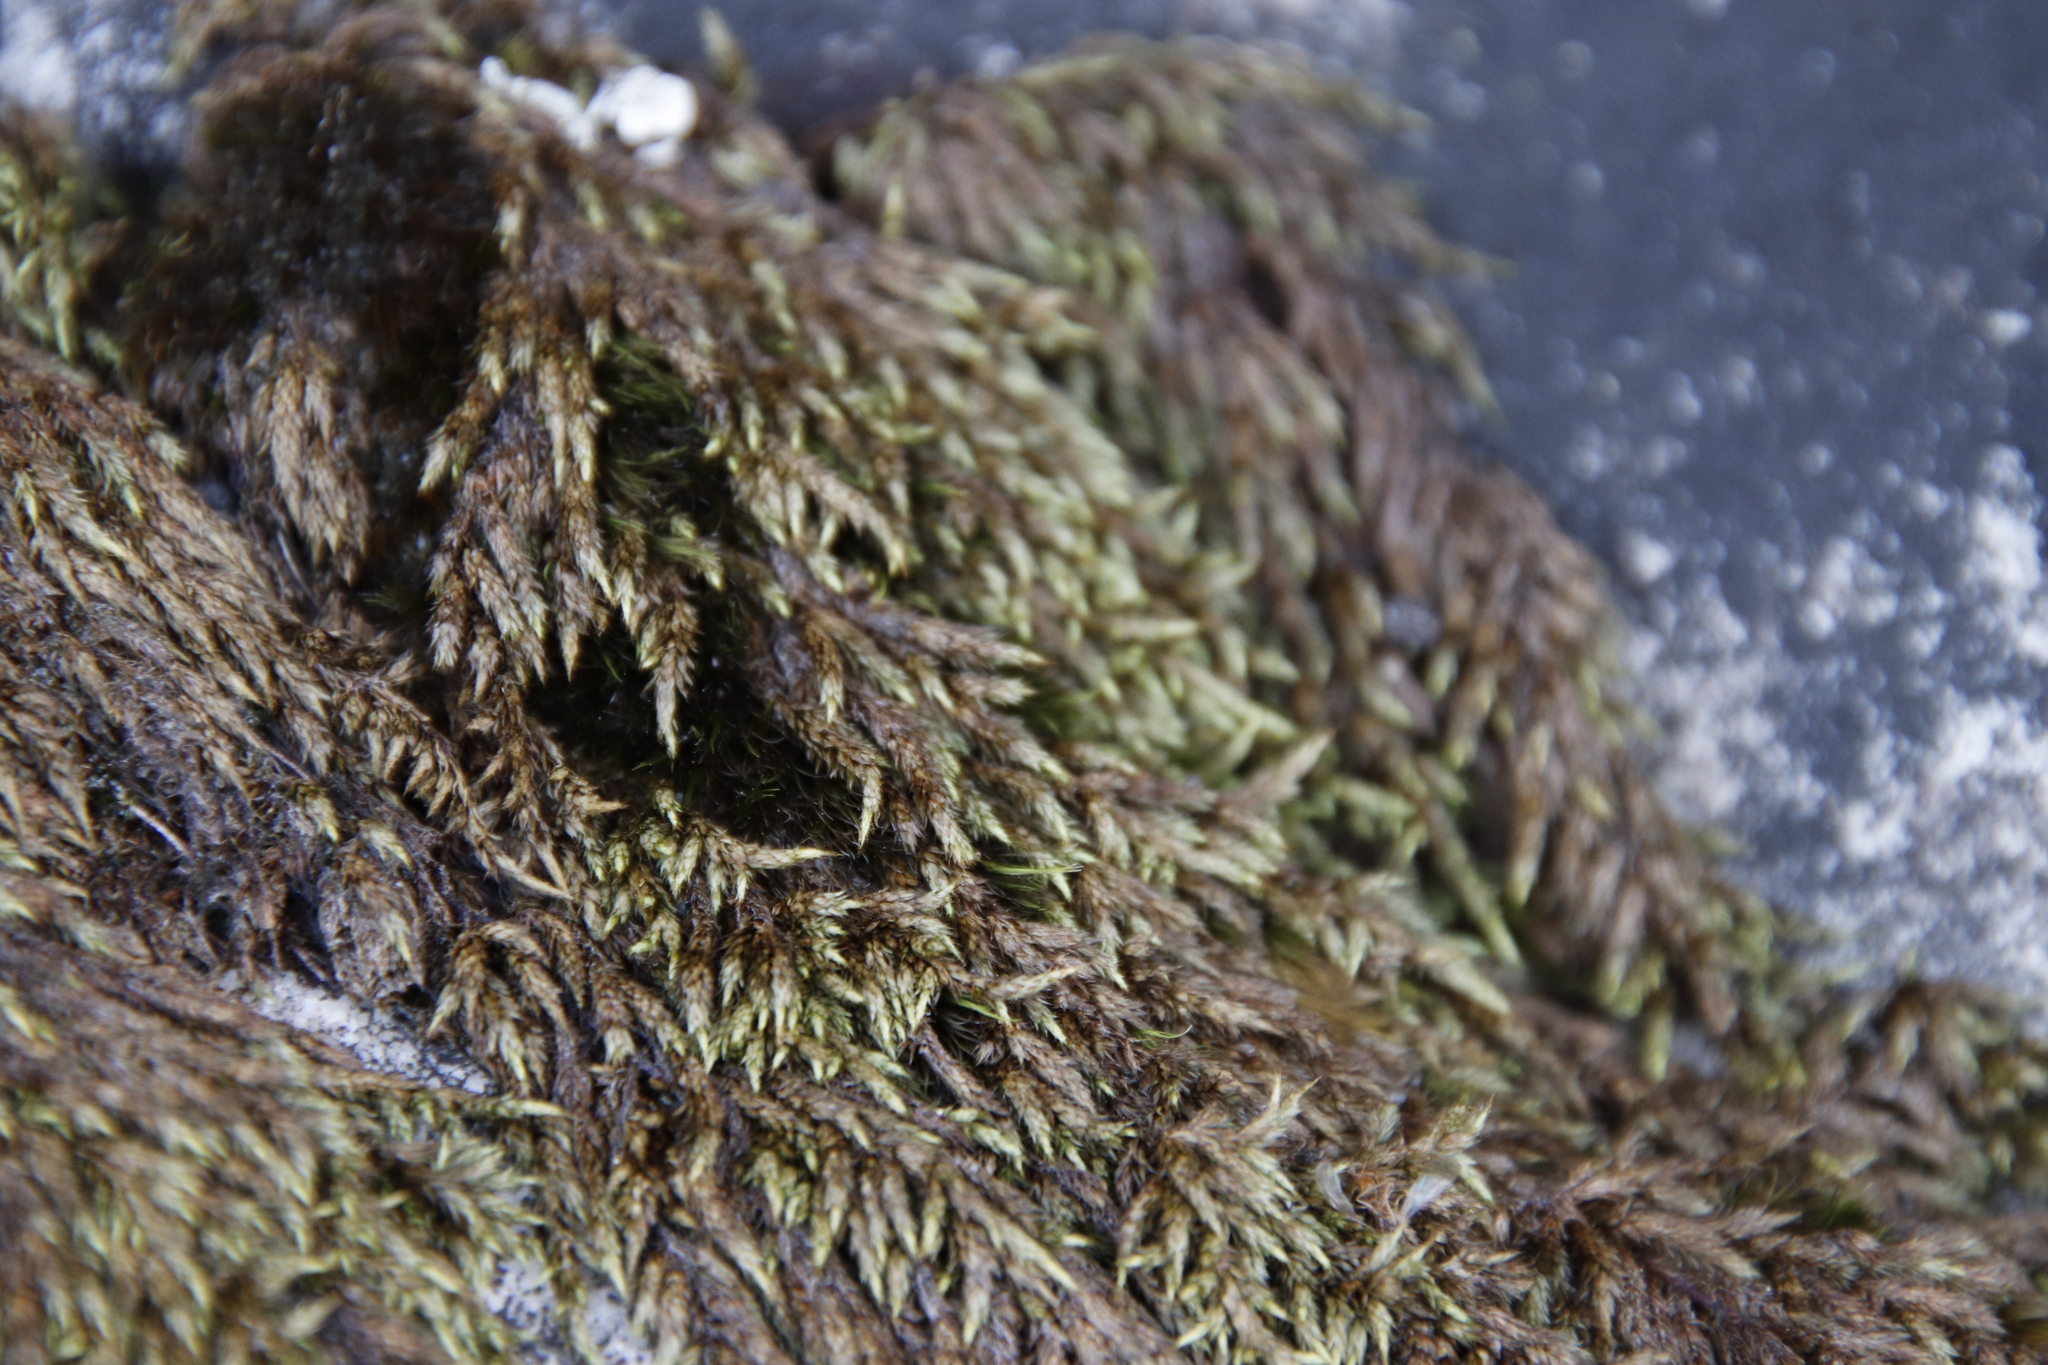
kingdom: Plantae
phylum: Bryophyta
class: Bryopsida
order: Hedwigiales
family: Hedwigiaceae
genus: Rhacocarpus
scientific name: Rhacocarpus purpurascens
